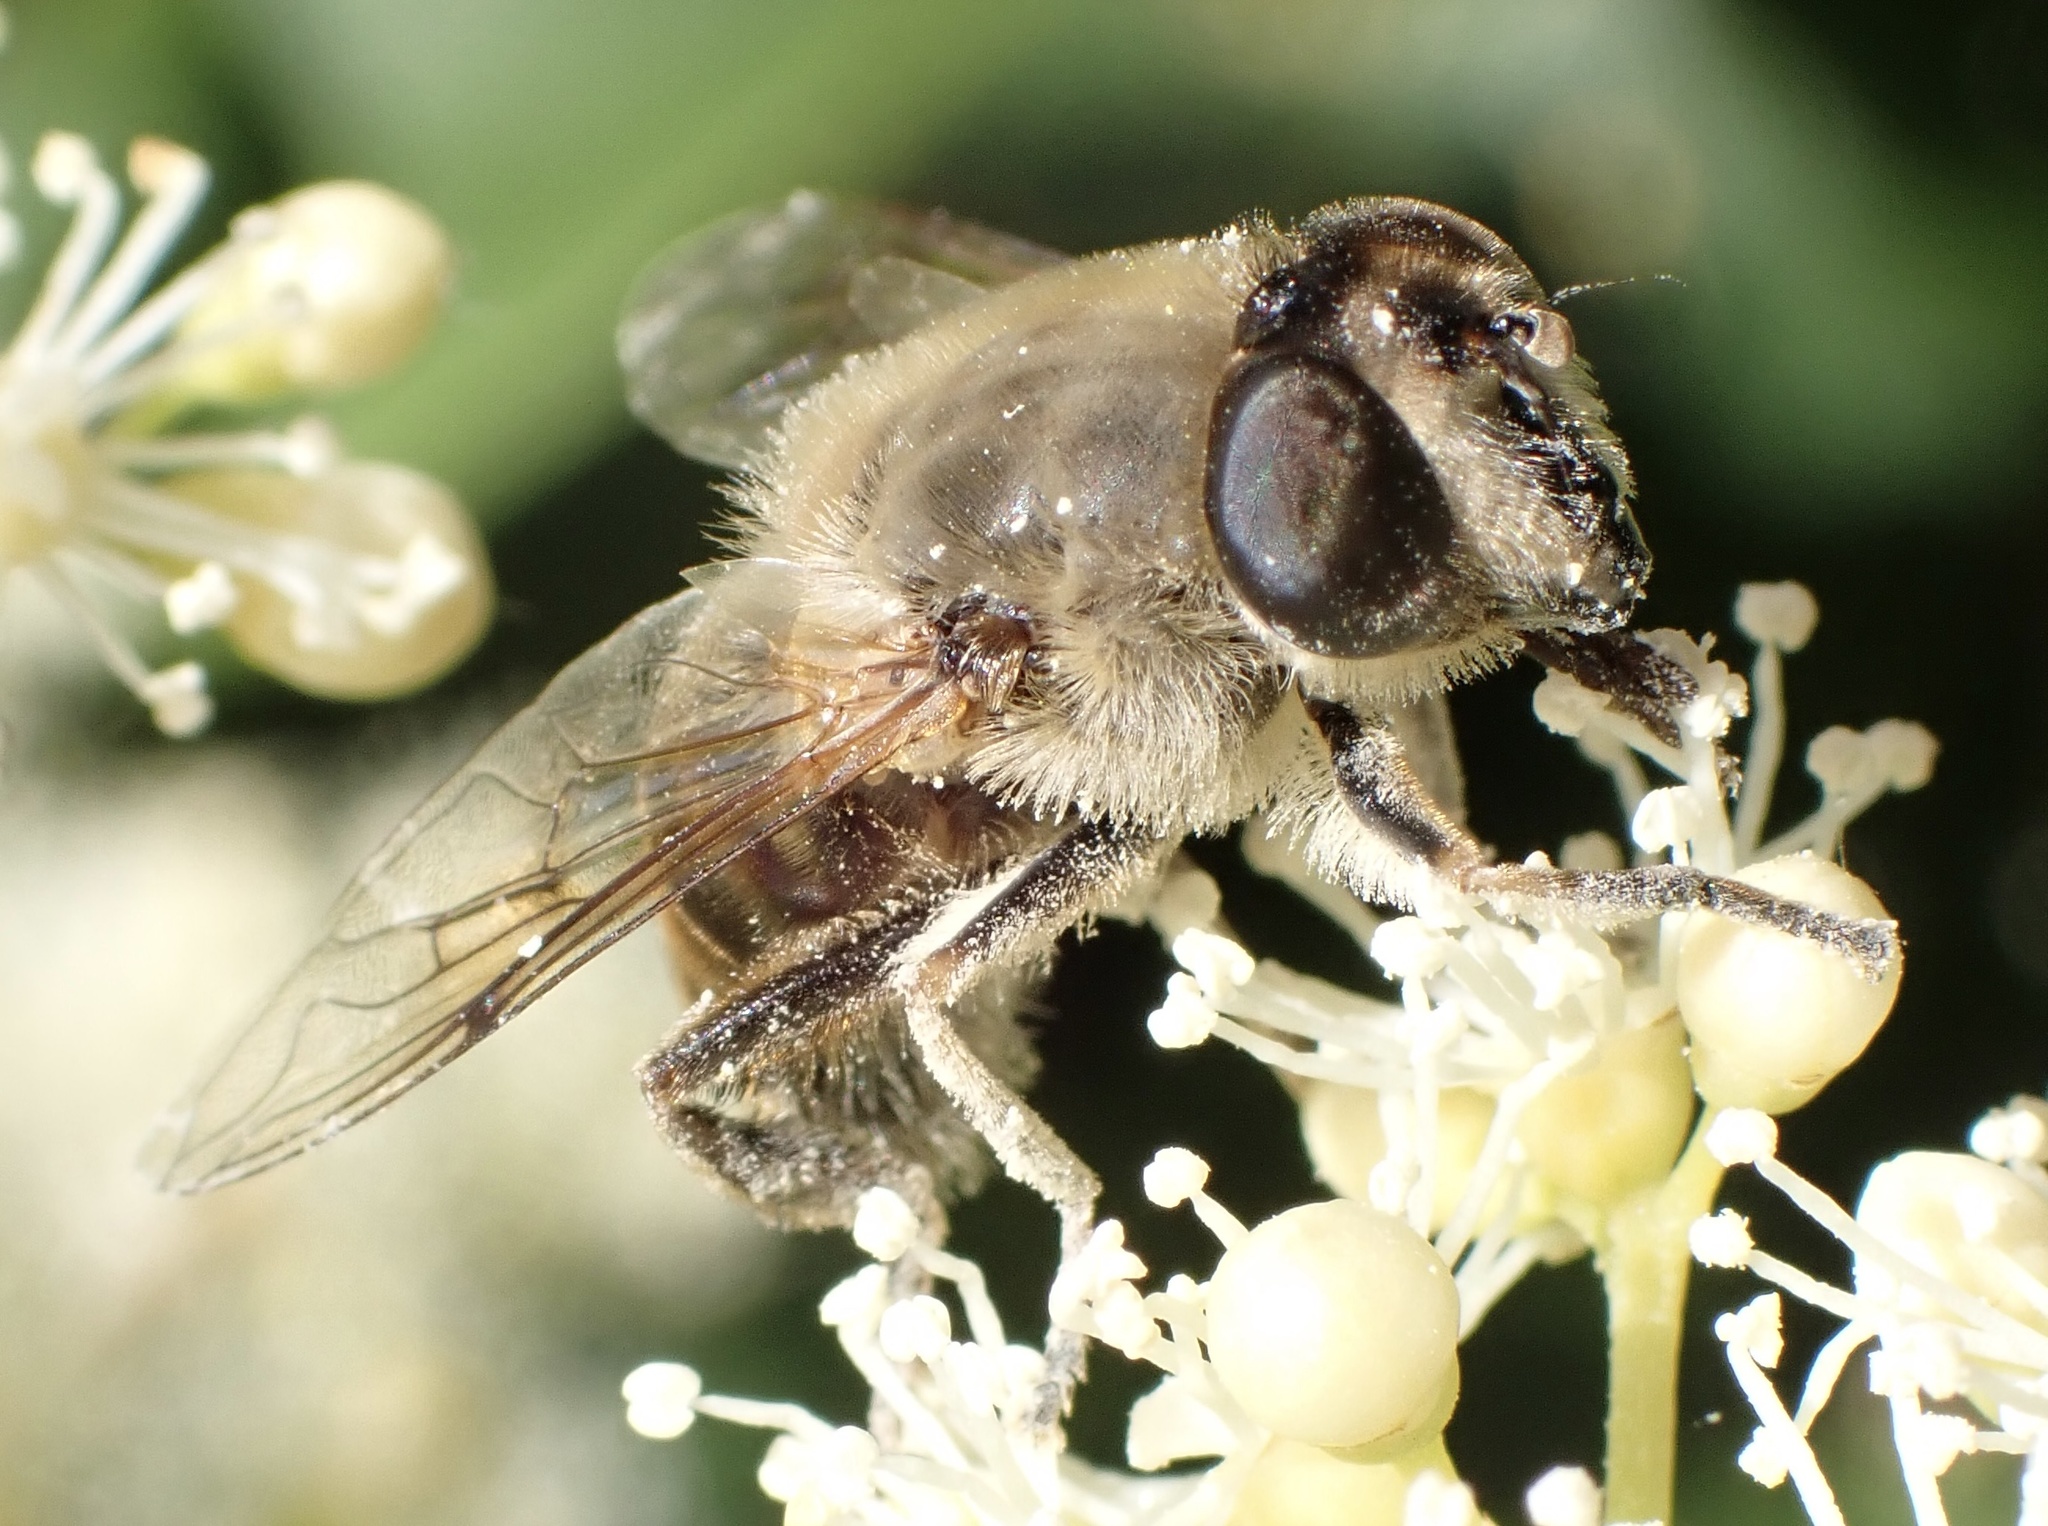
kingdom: Animalia
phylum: Arthropoda
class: Insecta
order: Diptera
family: Syrphidae
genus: Eristalis
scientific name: Eristalis tenax
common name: Drone fly
